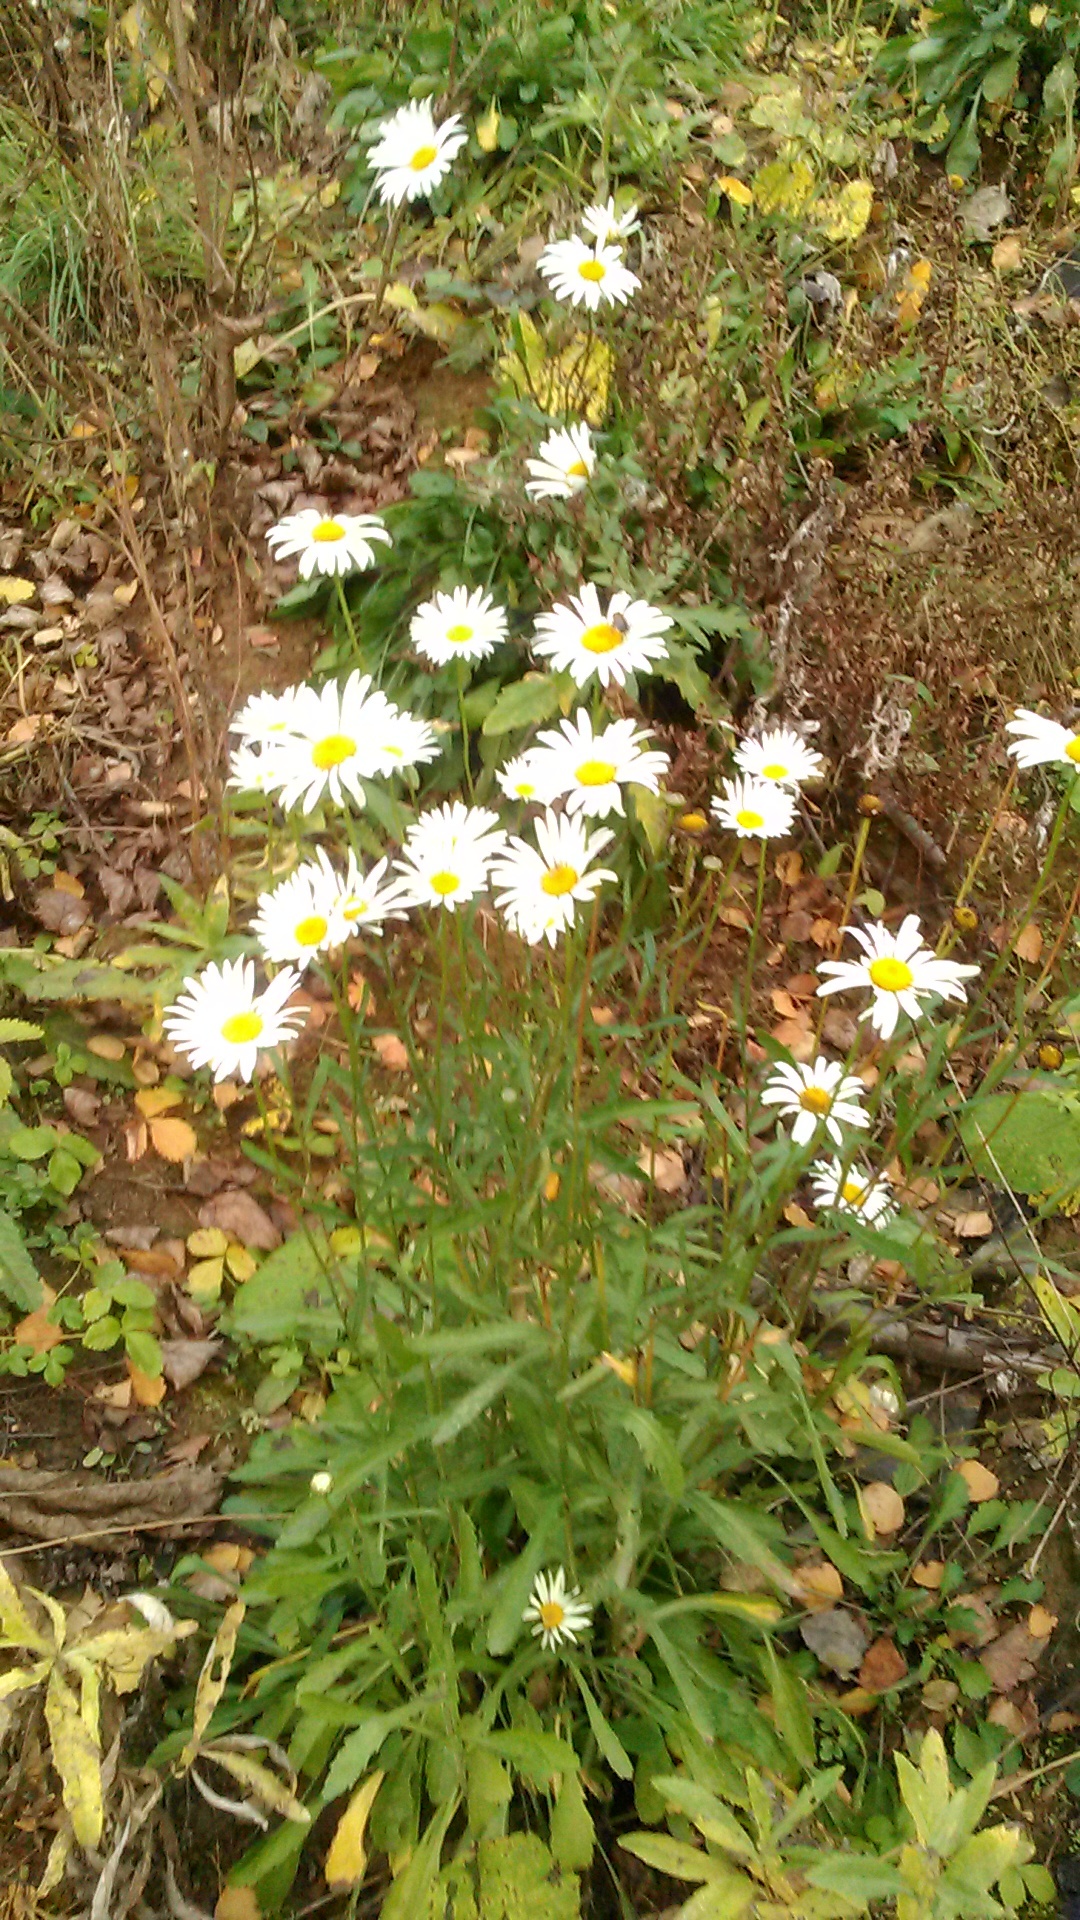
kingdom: Plantae
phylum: Tracheophyta
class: Magnoliopsida
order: Asterales
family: Asteraceae
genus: Leucanthemum
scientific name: Leucanthemum vulgare
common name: Oxeye daisy
